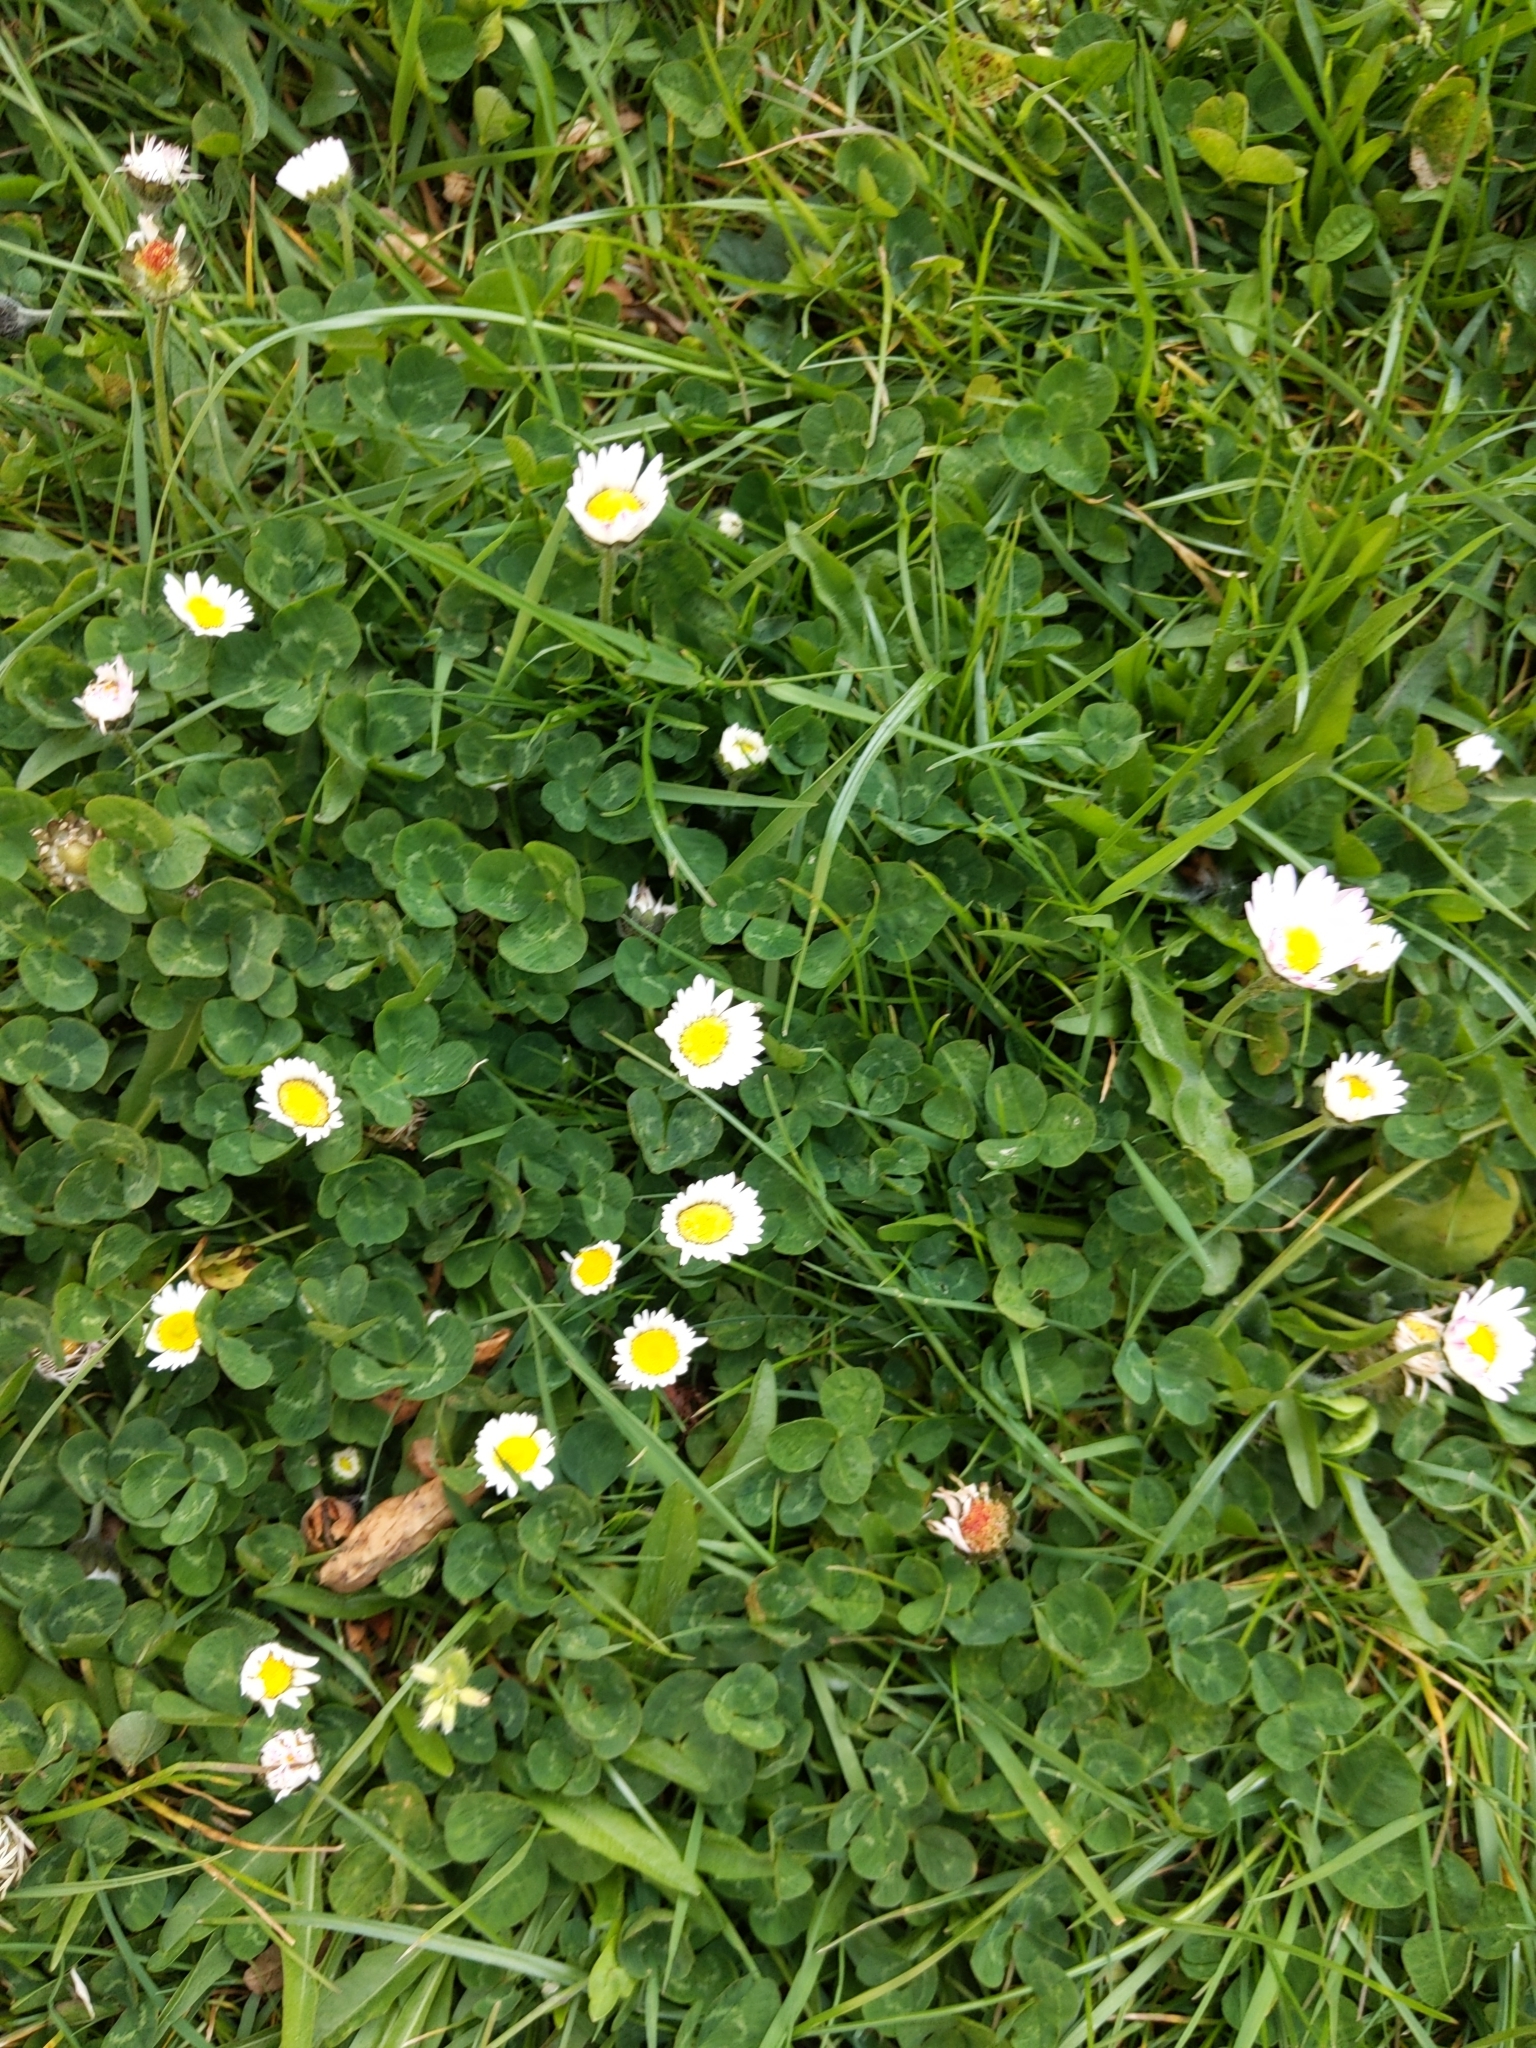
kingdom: Plantae
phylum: Tracheophyta
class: Magnoliopsida
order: Asterales
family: Asteraceae
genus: Bellis
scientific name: Bellis perennis
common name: Lawndaisy
